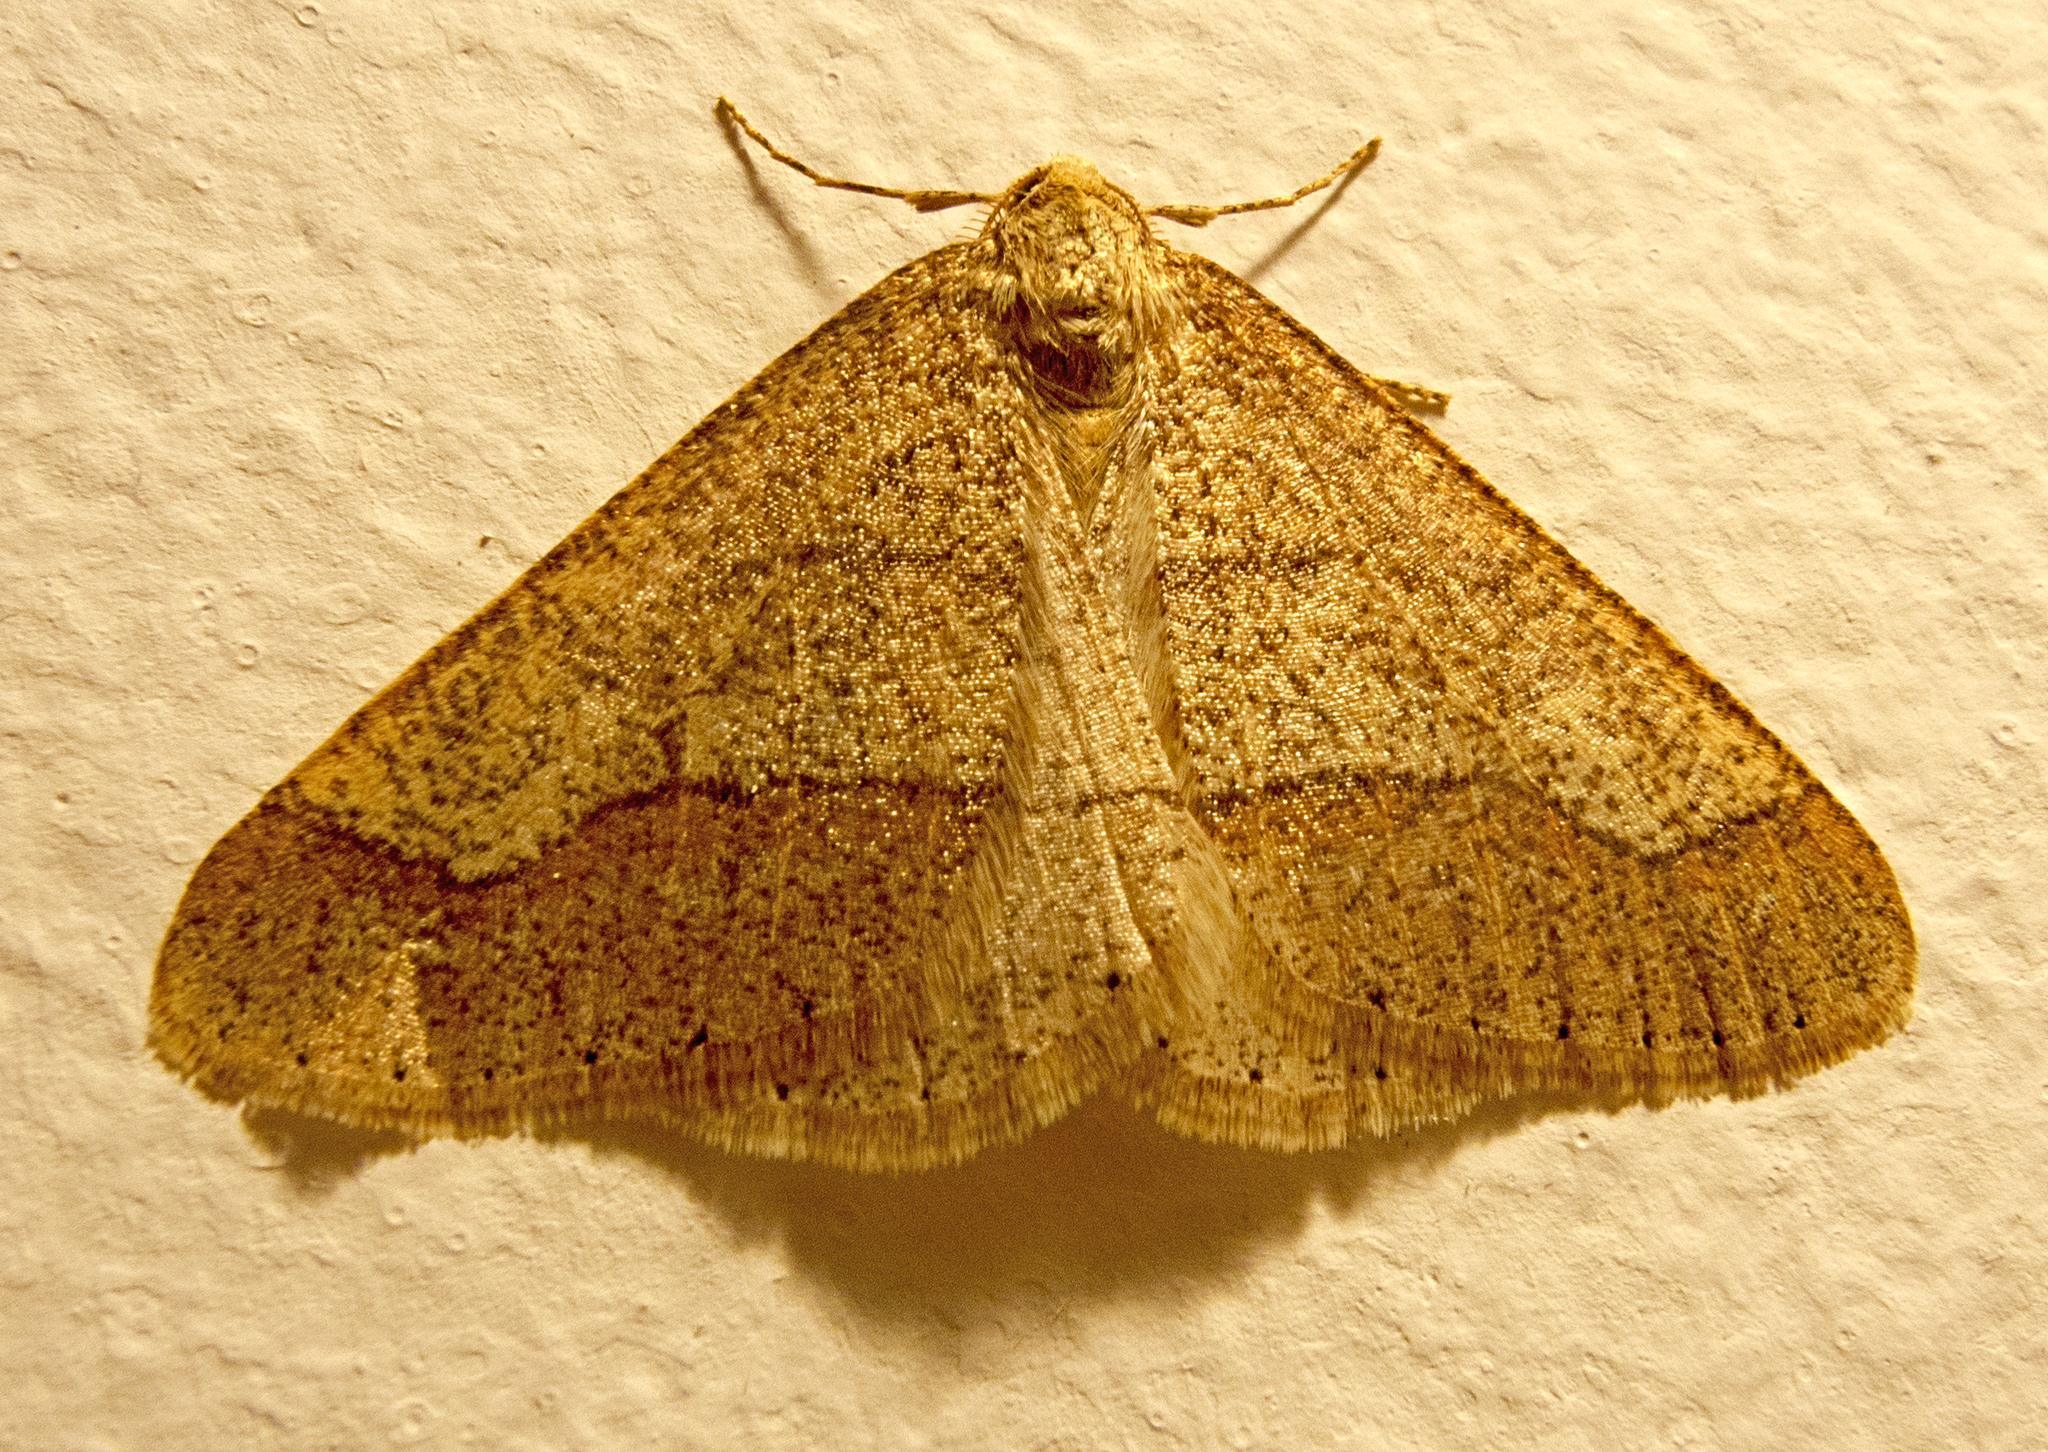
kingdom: Animalia
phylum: Arthropoda
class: Insecta
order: Lepidoptera
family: Geometridae
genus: Agriopis
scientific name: Agriopis marginaria
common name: Dotted border
